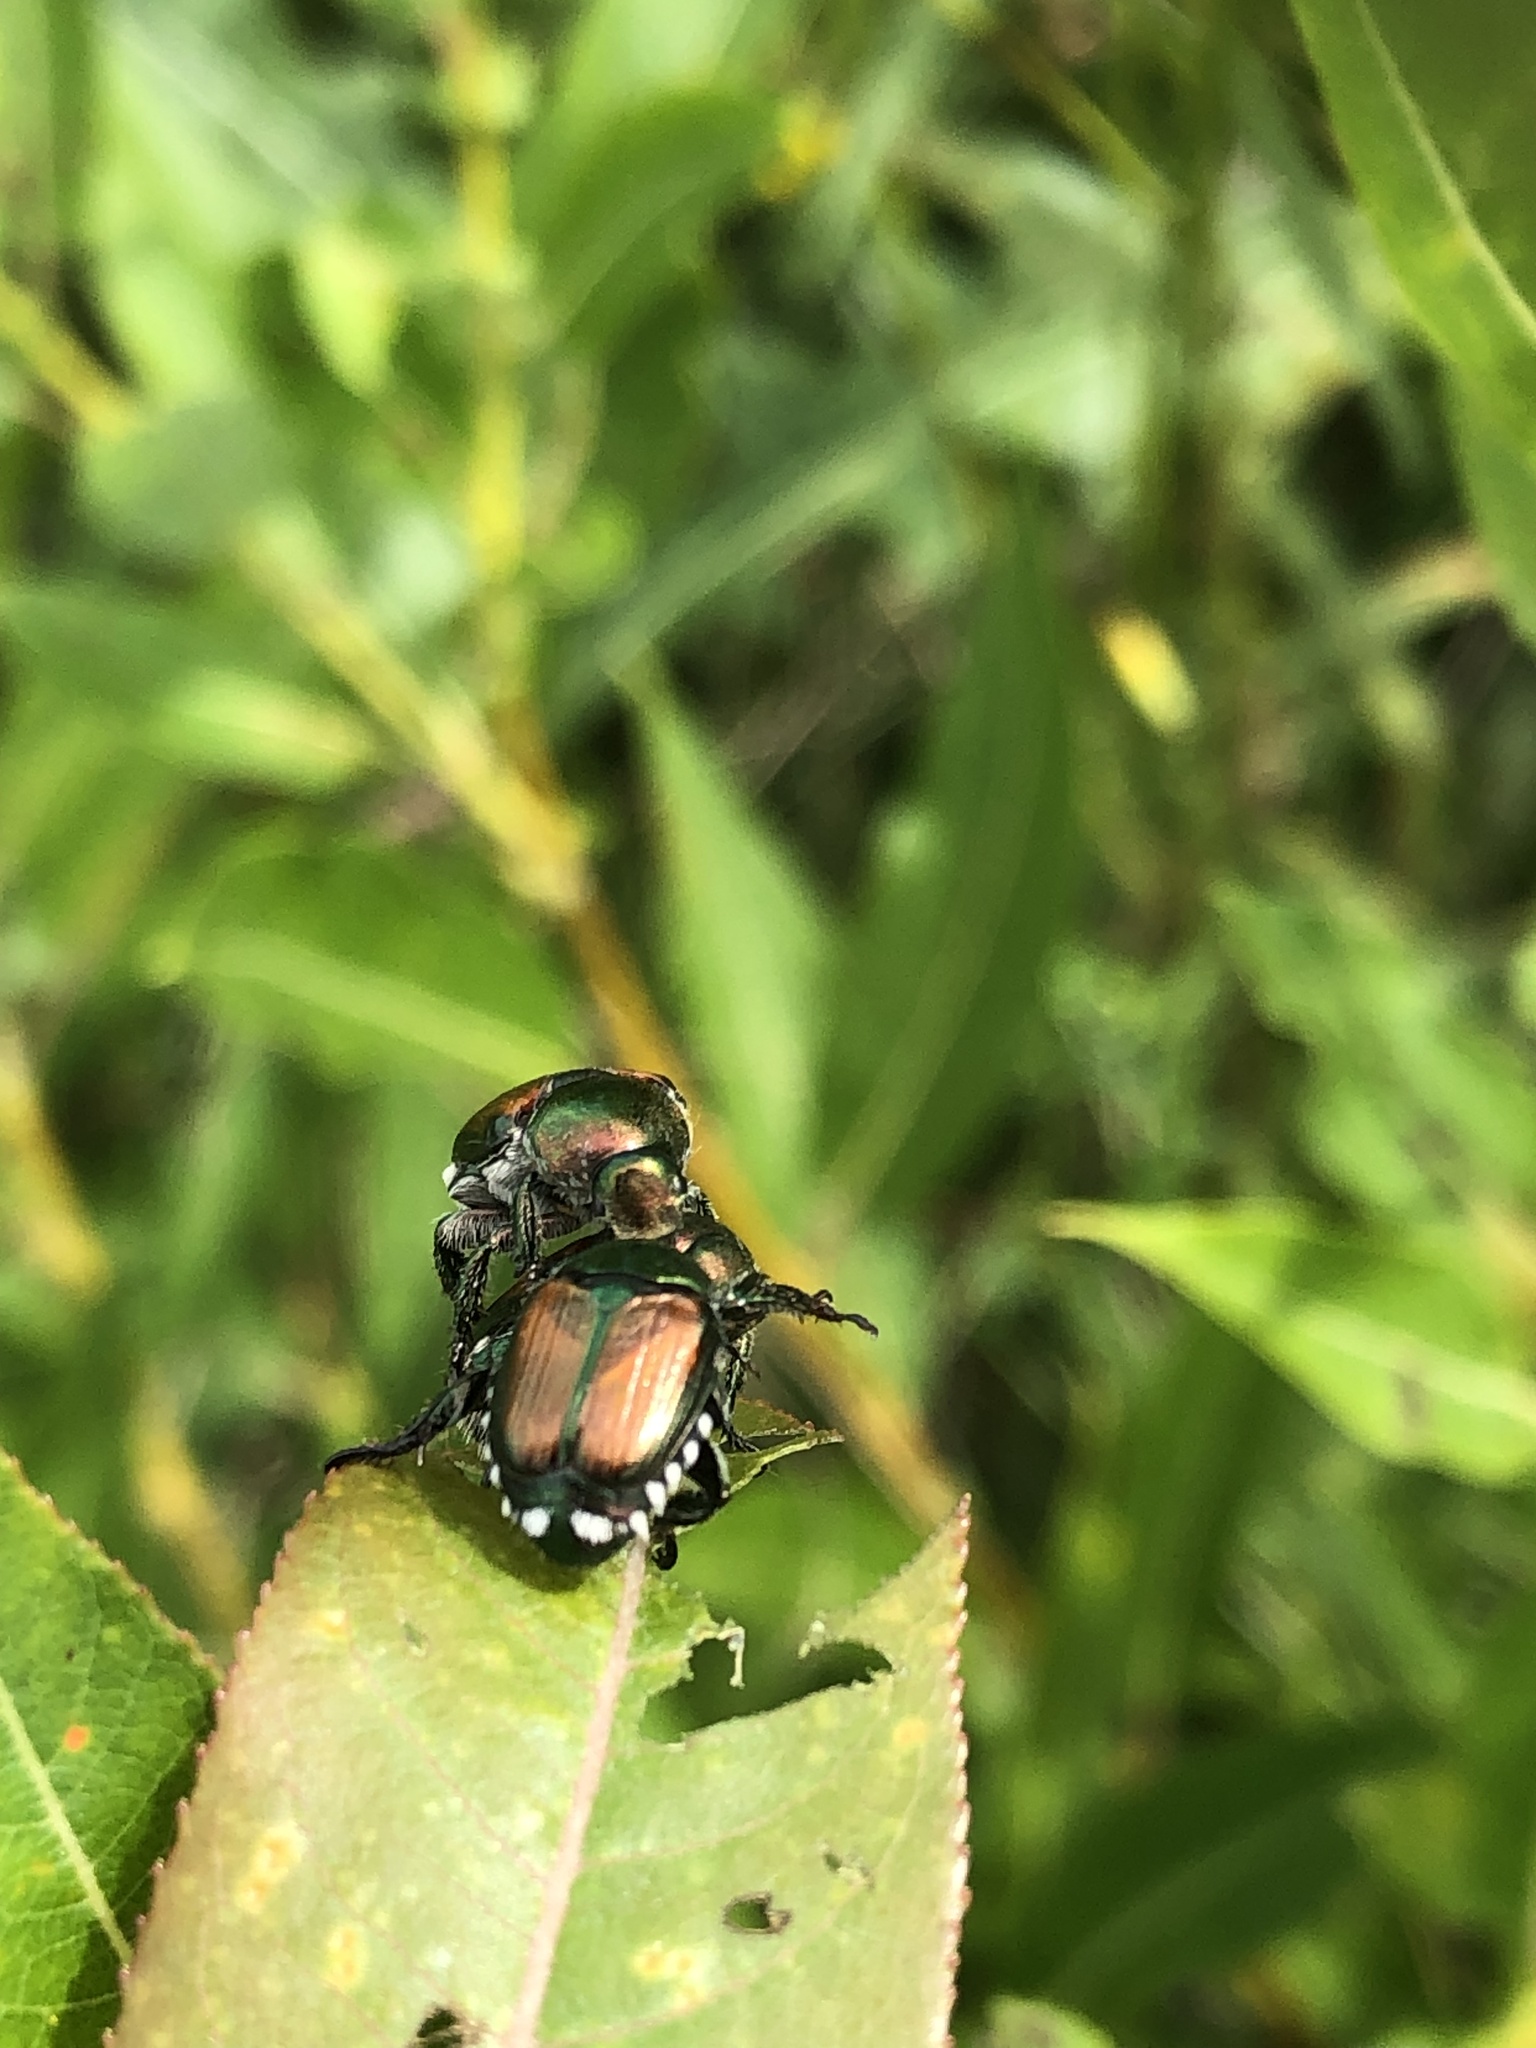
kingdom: Animalia
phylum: Arthropoda
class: Insecta
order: Coleoptera
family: Scarabaeidae
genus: Popillia
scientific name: Popillia japonica
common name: Japanese beetle
